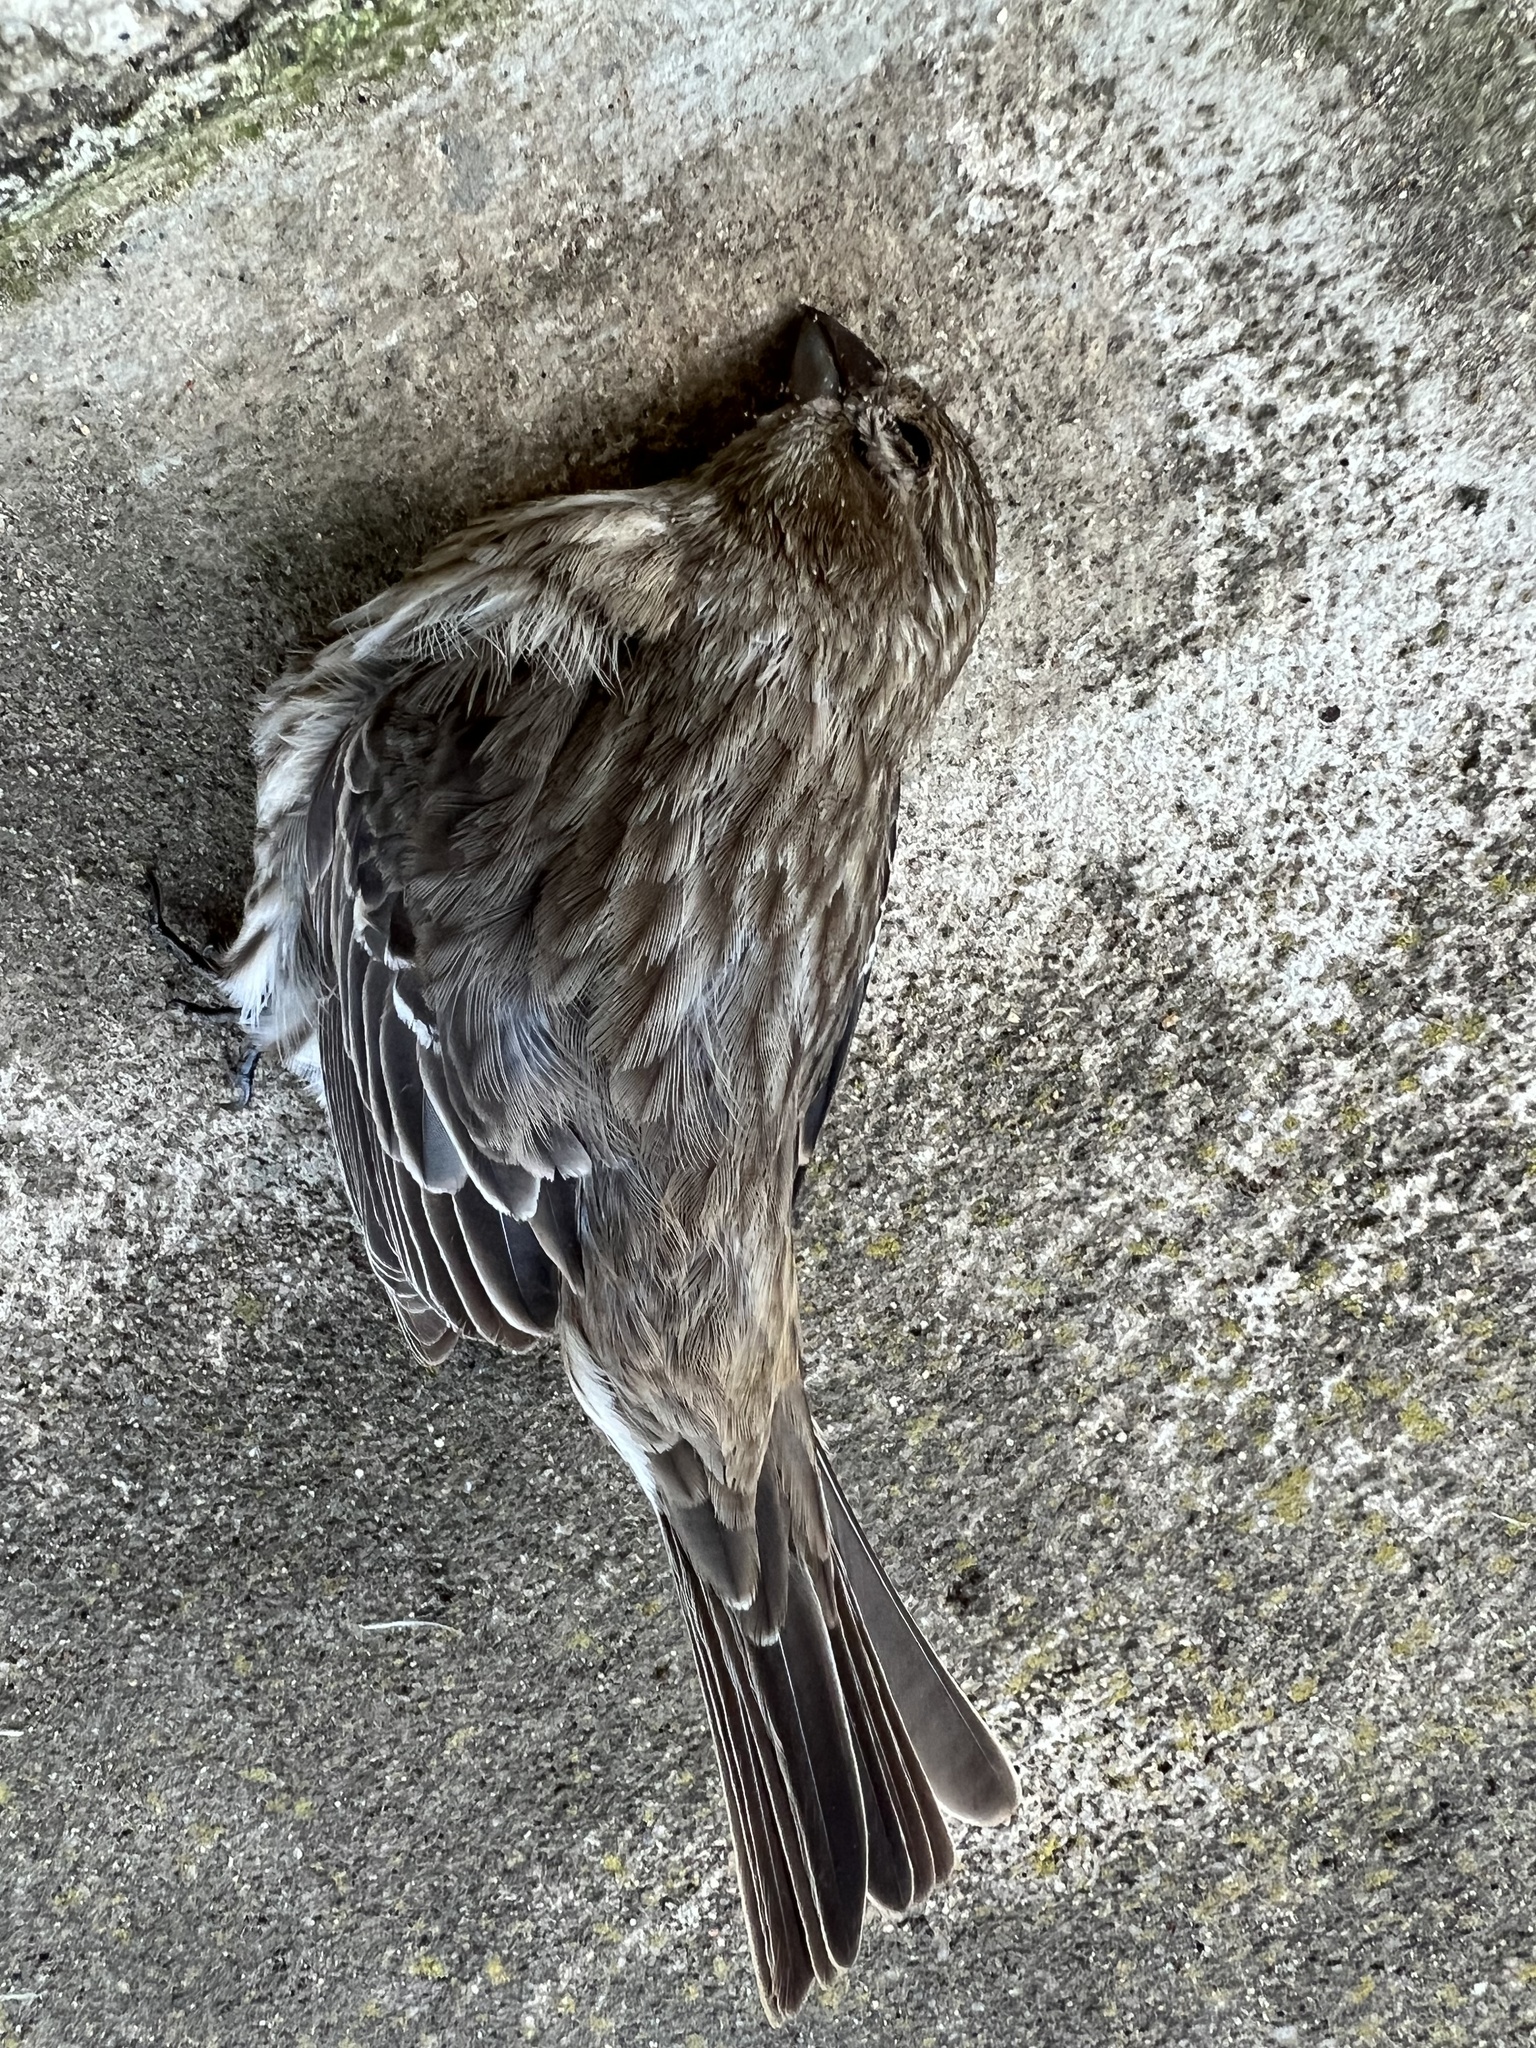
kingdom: Animalia
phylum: Chordata
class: Aves
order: Passeriformes
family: Fringillidae
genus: Haemorhous
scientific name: Haemorhous mexicanus
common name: House finch
